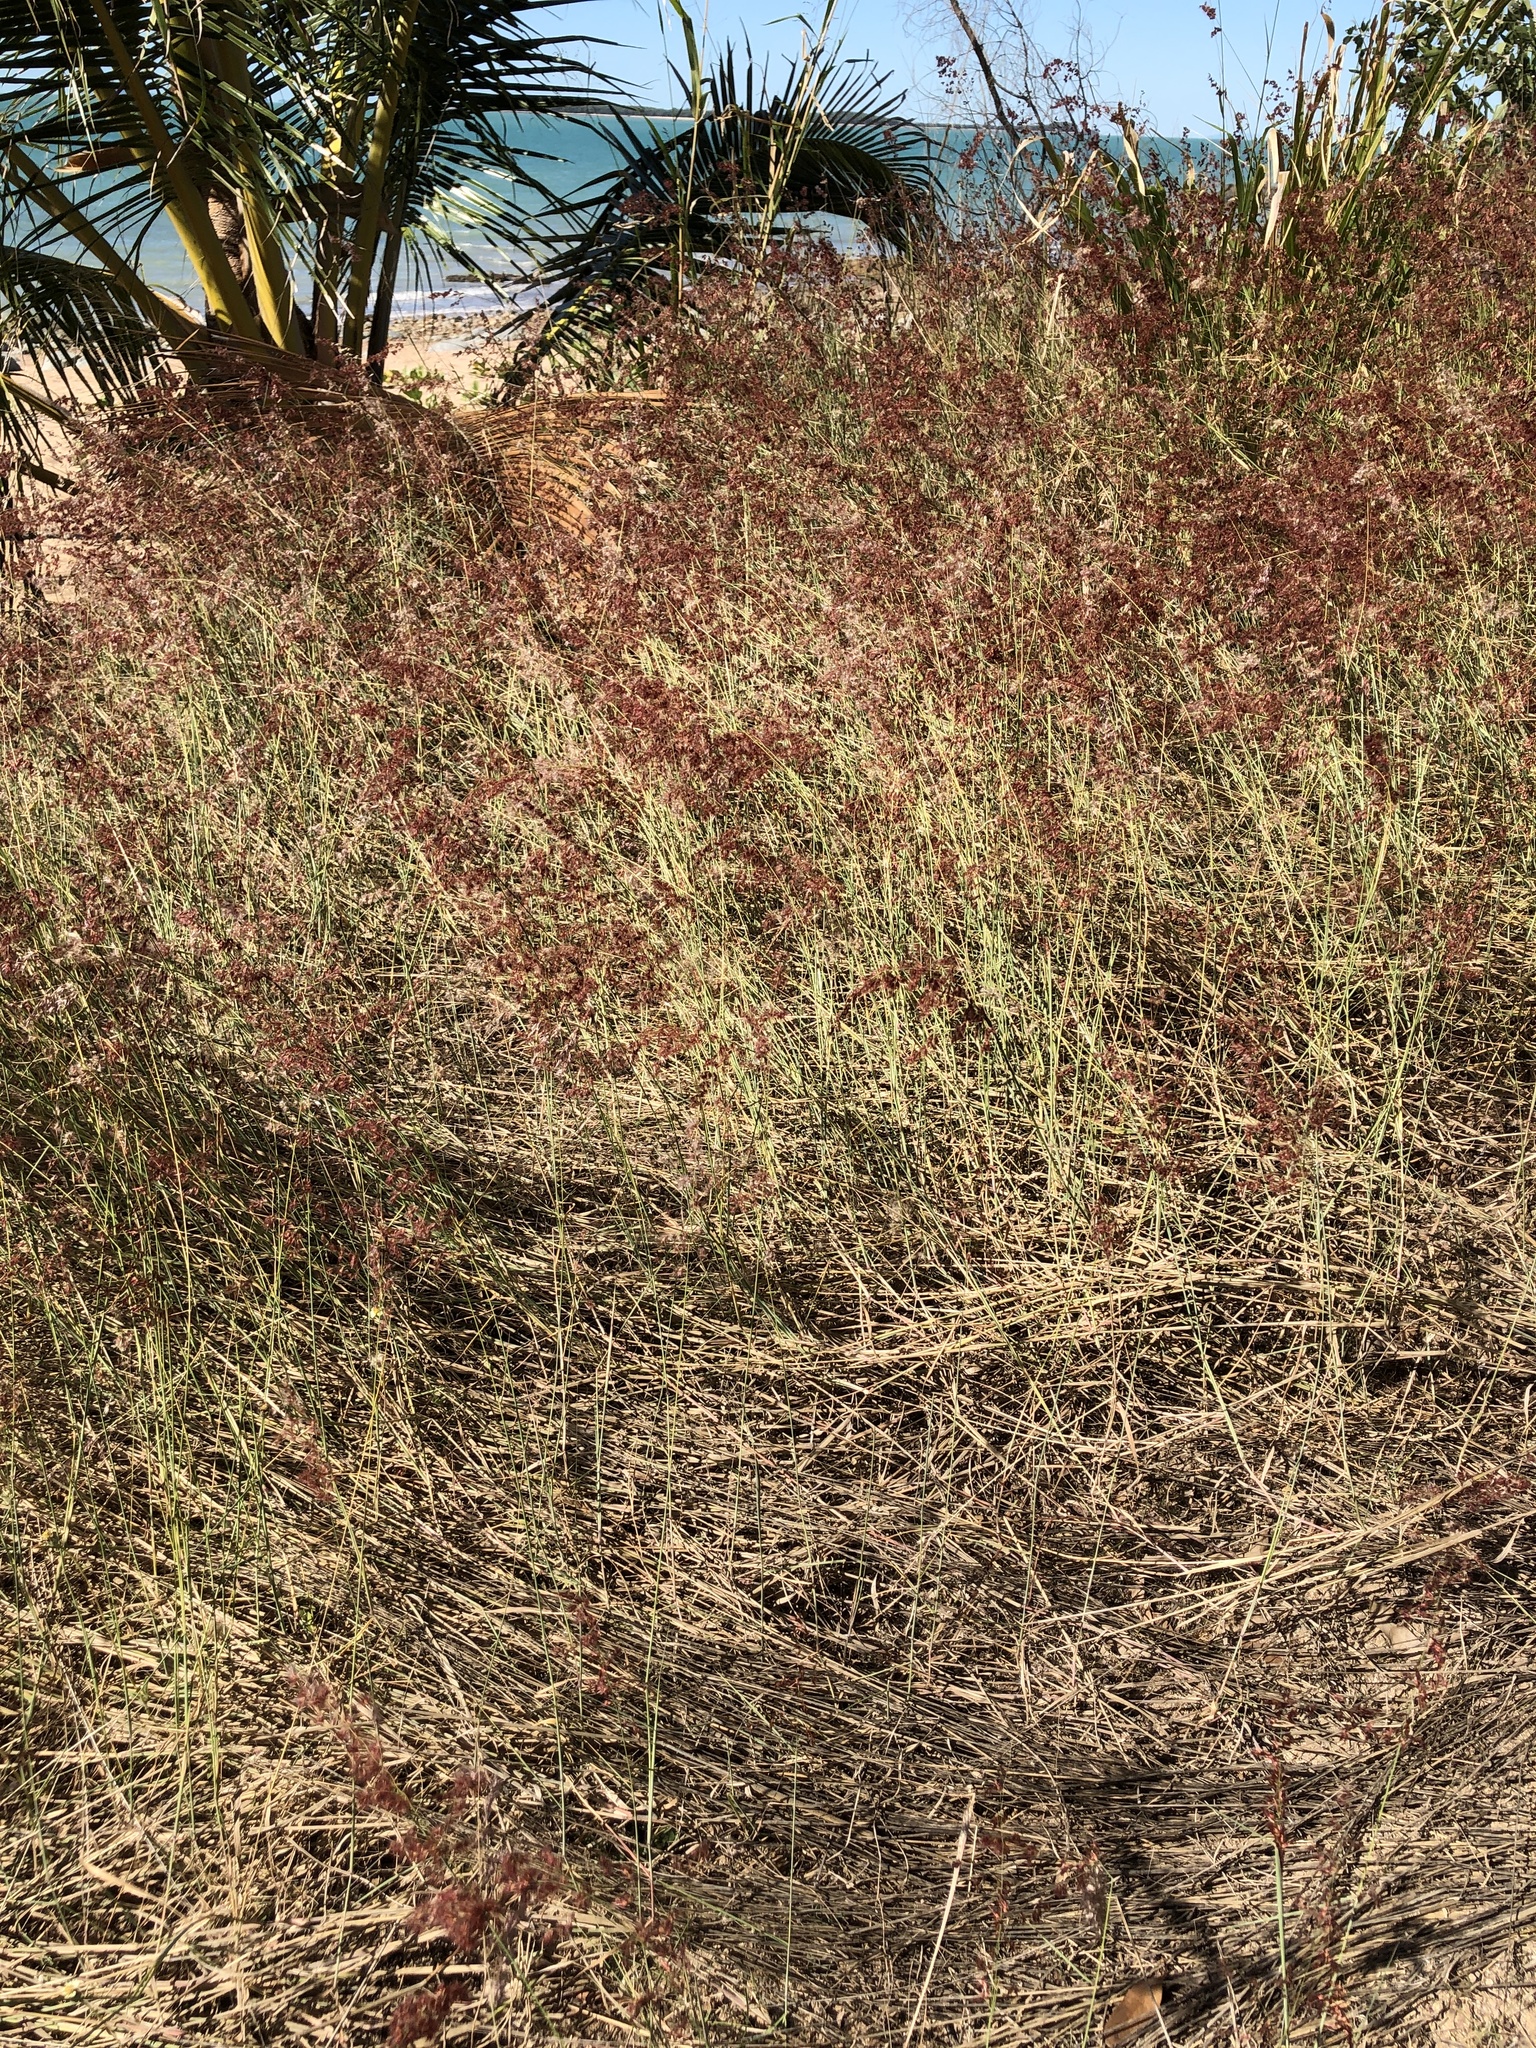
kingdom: Plantae
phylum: Tracheophyta
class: Liliopsida
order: Poales
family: Poaceae
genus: Melinis
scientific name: Melinis repens
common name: Rose natal grass
